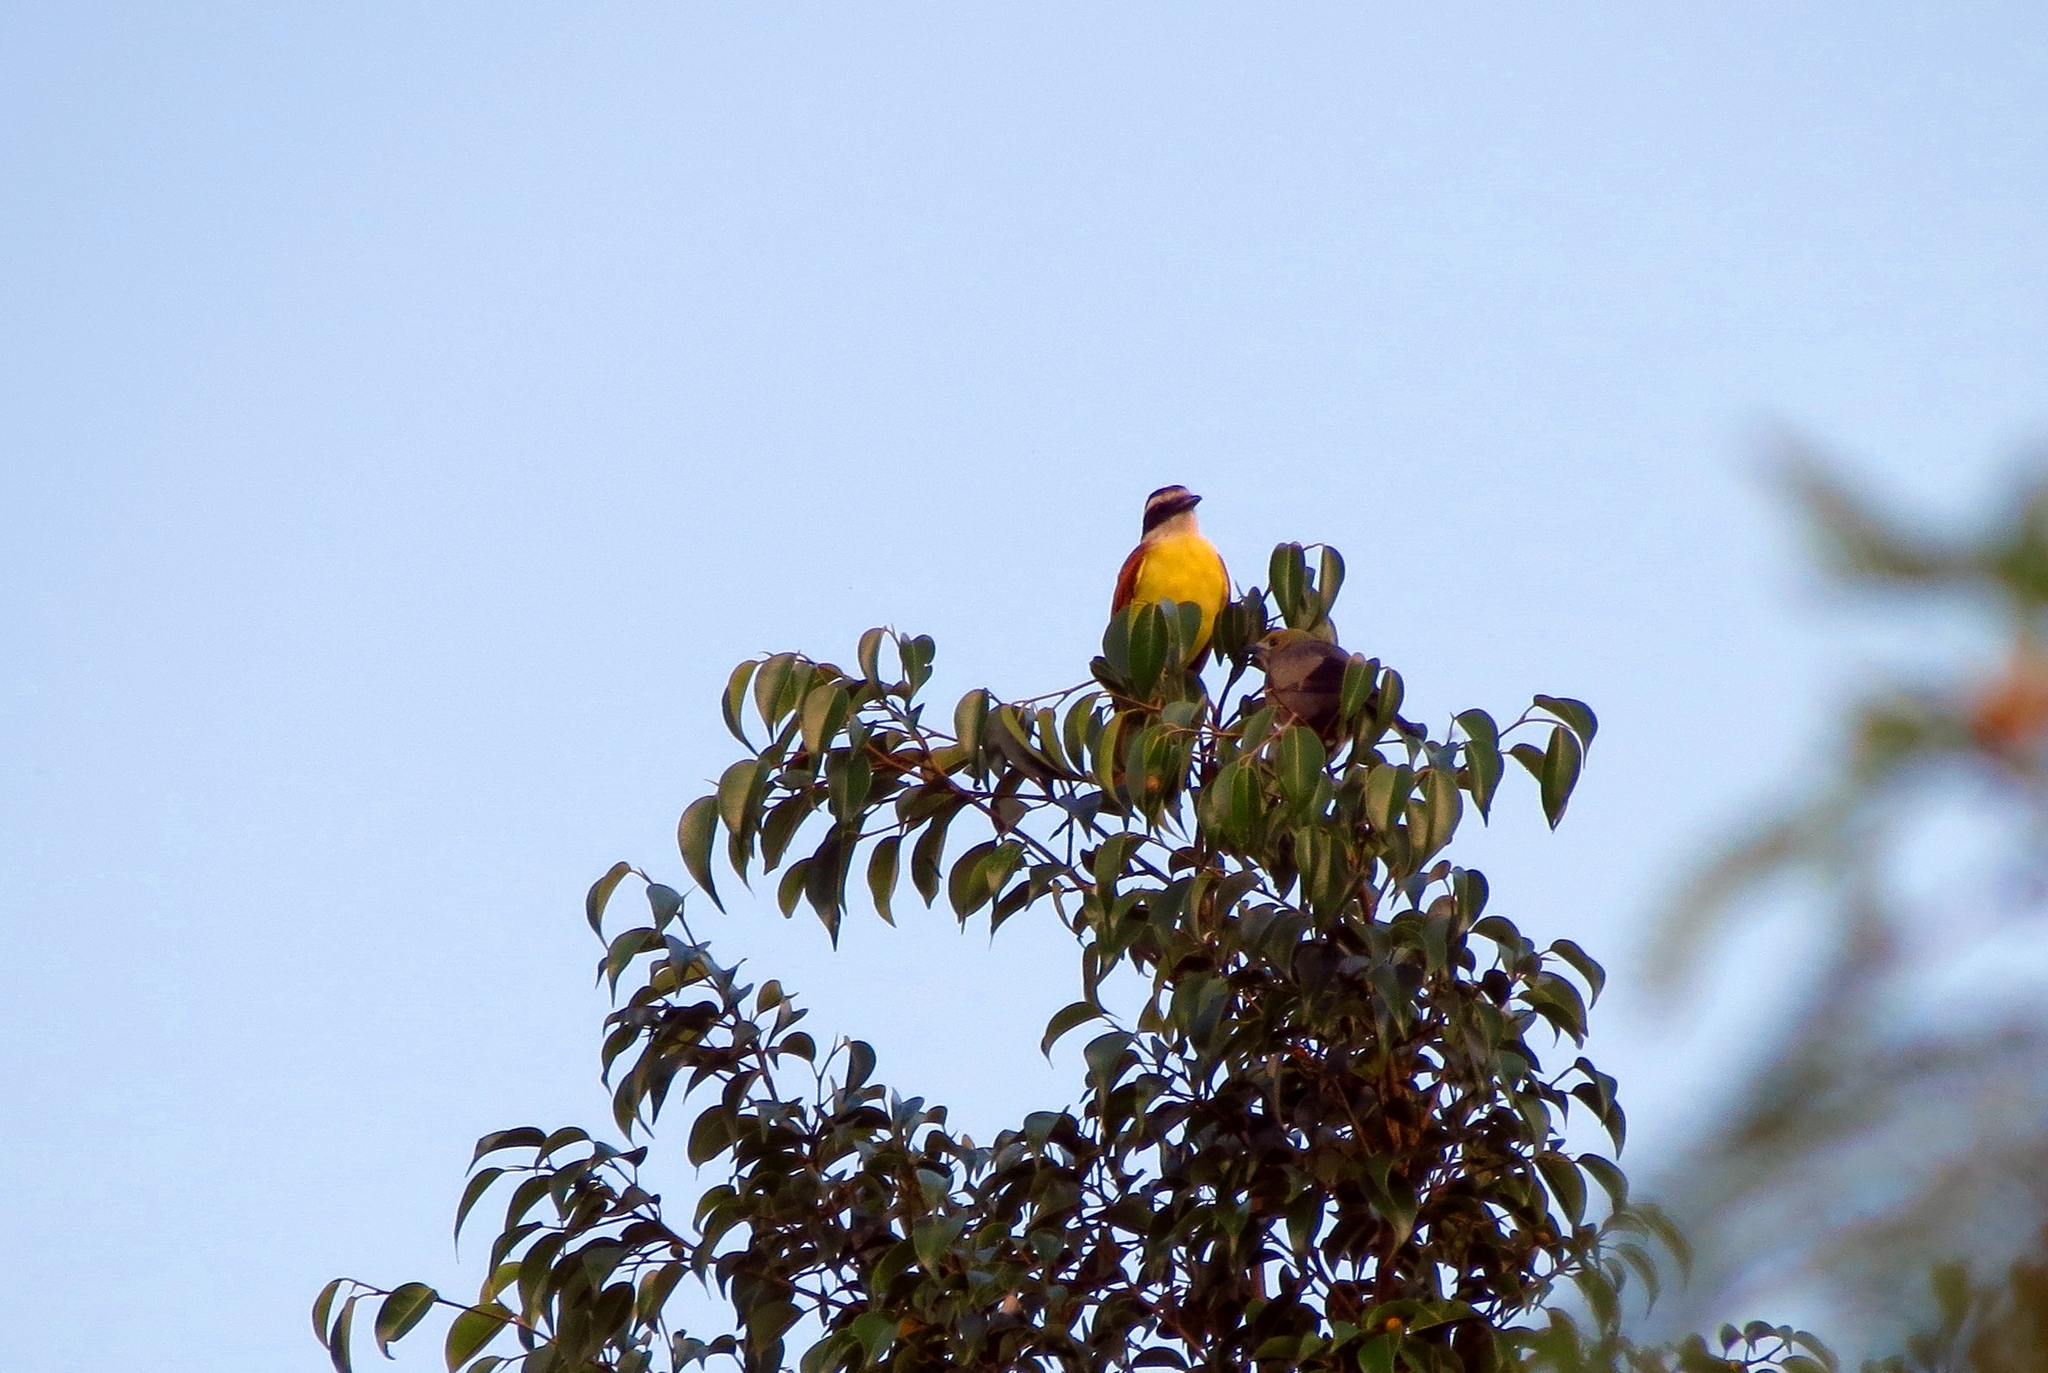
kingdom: Animalia
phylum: Chordata
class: Aves
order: Passeriformes
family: Tyrannidae
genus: Pitangus
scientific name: Pitangus sulphuratus
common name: Great kiskadee
